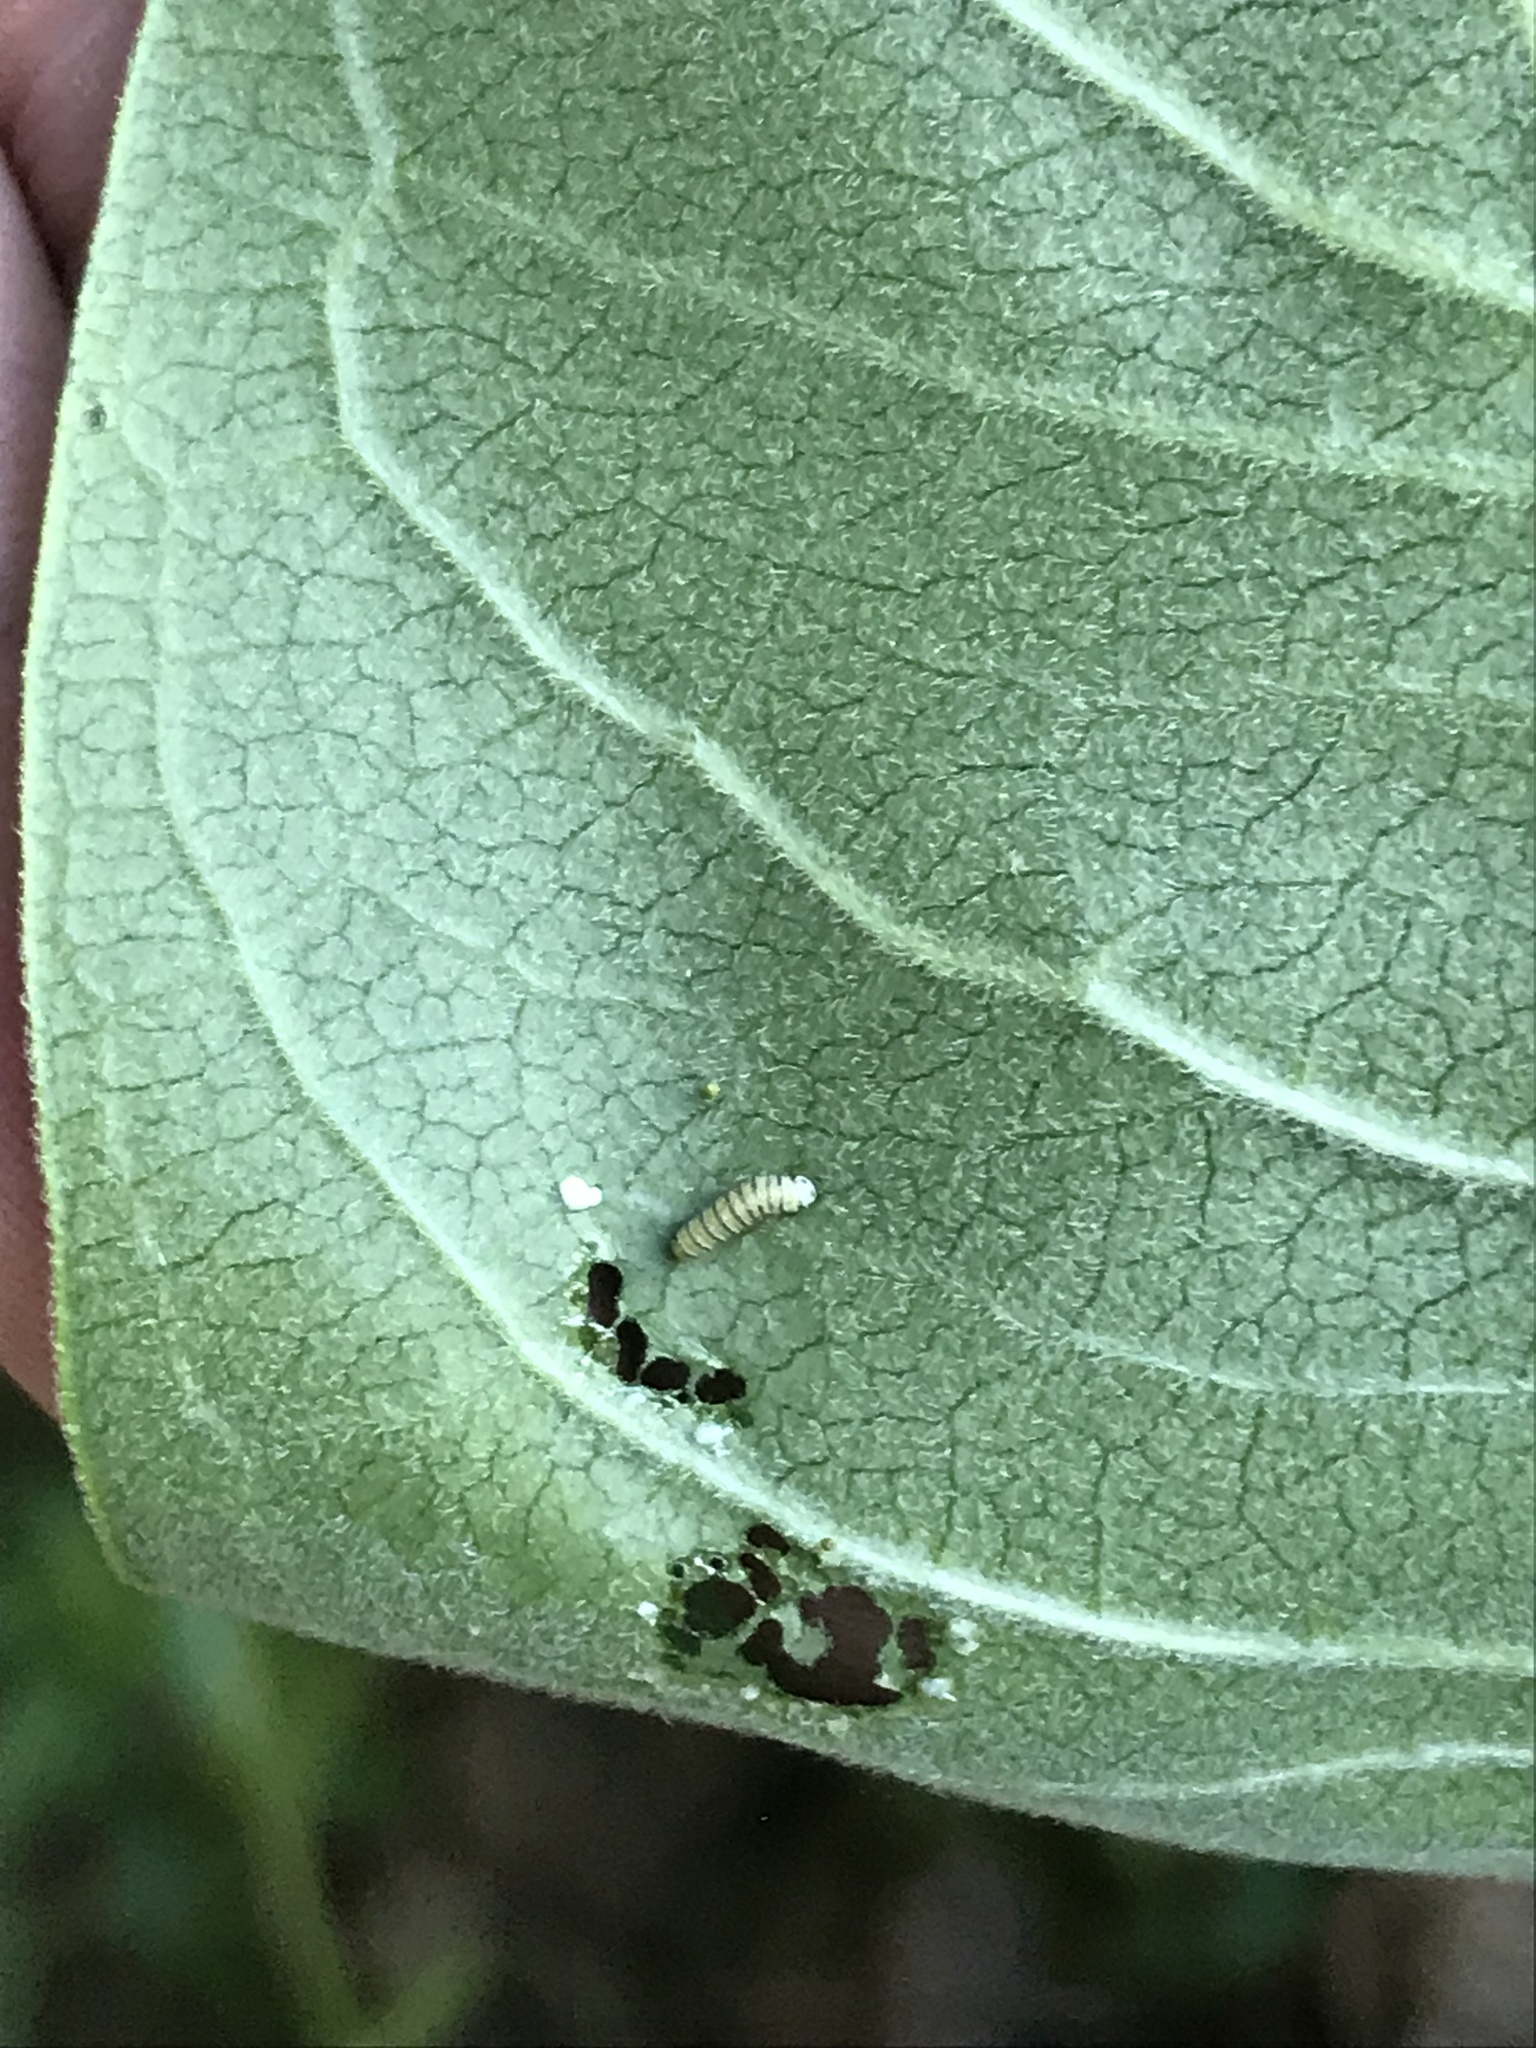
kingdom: Animalia
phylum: Arthropoda
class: Insecta
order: Lepidoptera
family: Nymphalidae
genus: Danaus
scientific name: Danaus plexippus
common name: Monarch
